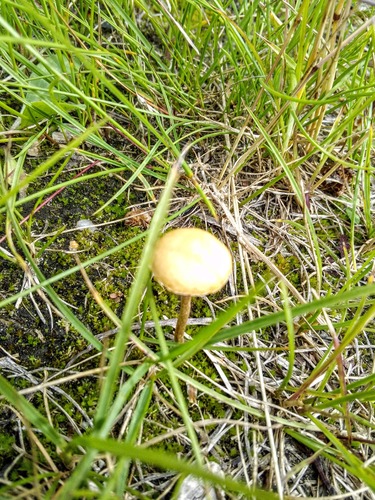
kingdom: Fungi
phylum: Basidiomycota
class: Agaricomycetes
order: Agaricales
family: Strophariaceae
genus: Agrocybe
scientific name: Agrocybe
